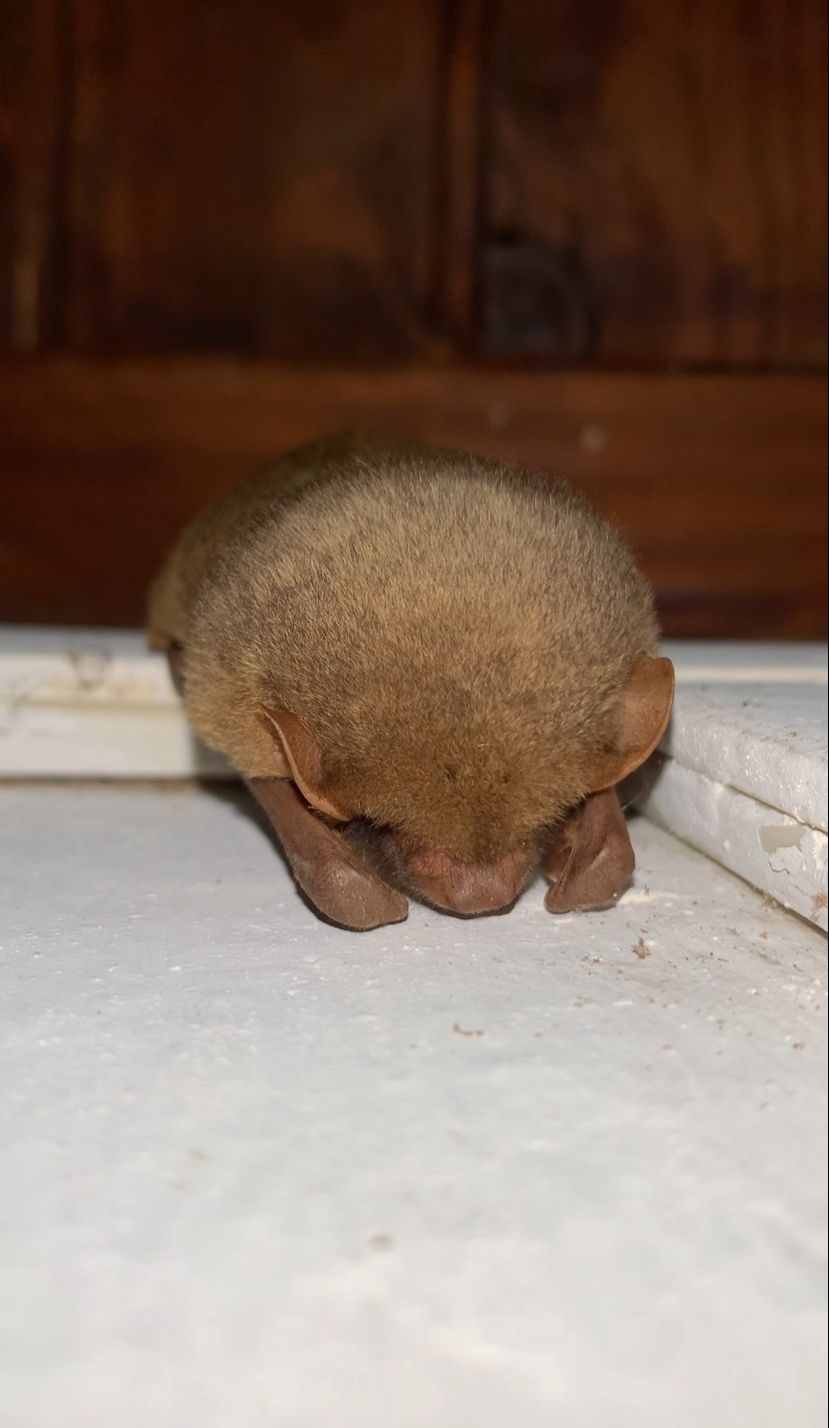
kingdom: Animalia
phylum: Chordata
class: Mammalia
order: Chiroptera
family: Vespertilionidae
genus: Dasypterus
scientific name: Dasypterus ega
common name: Southern yellow bat
